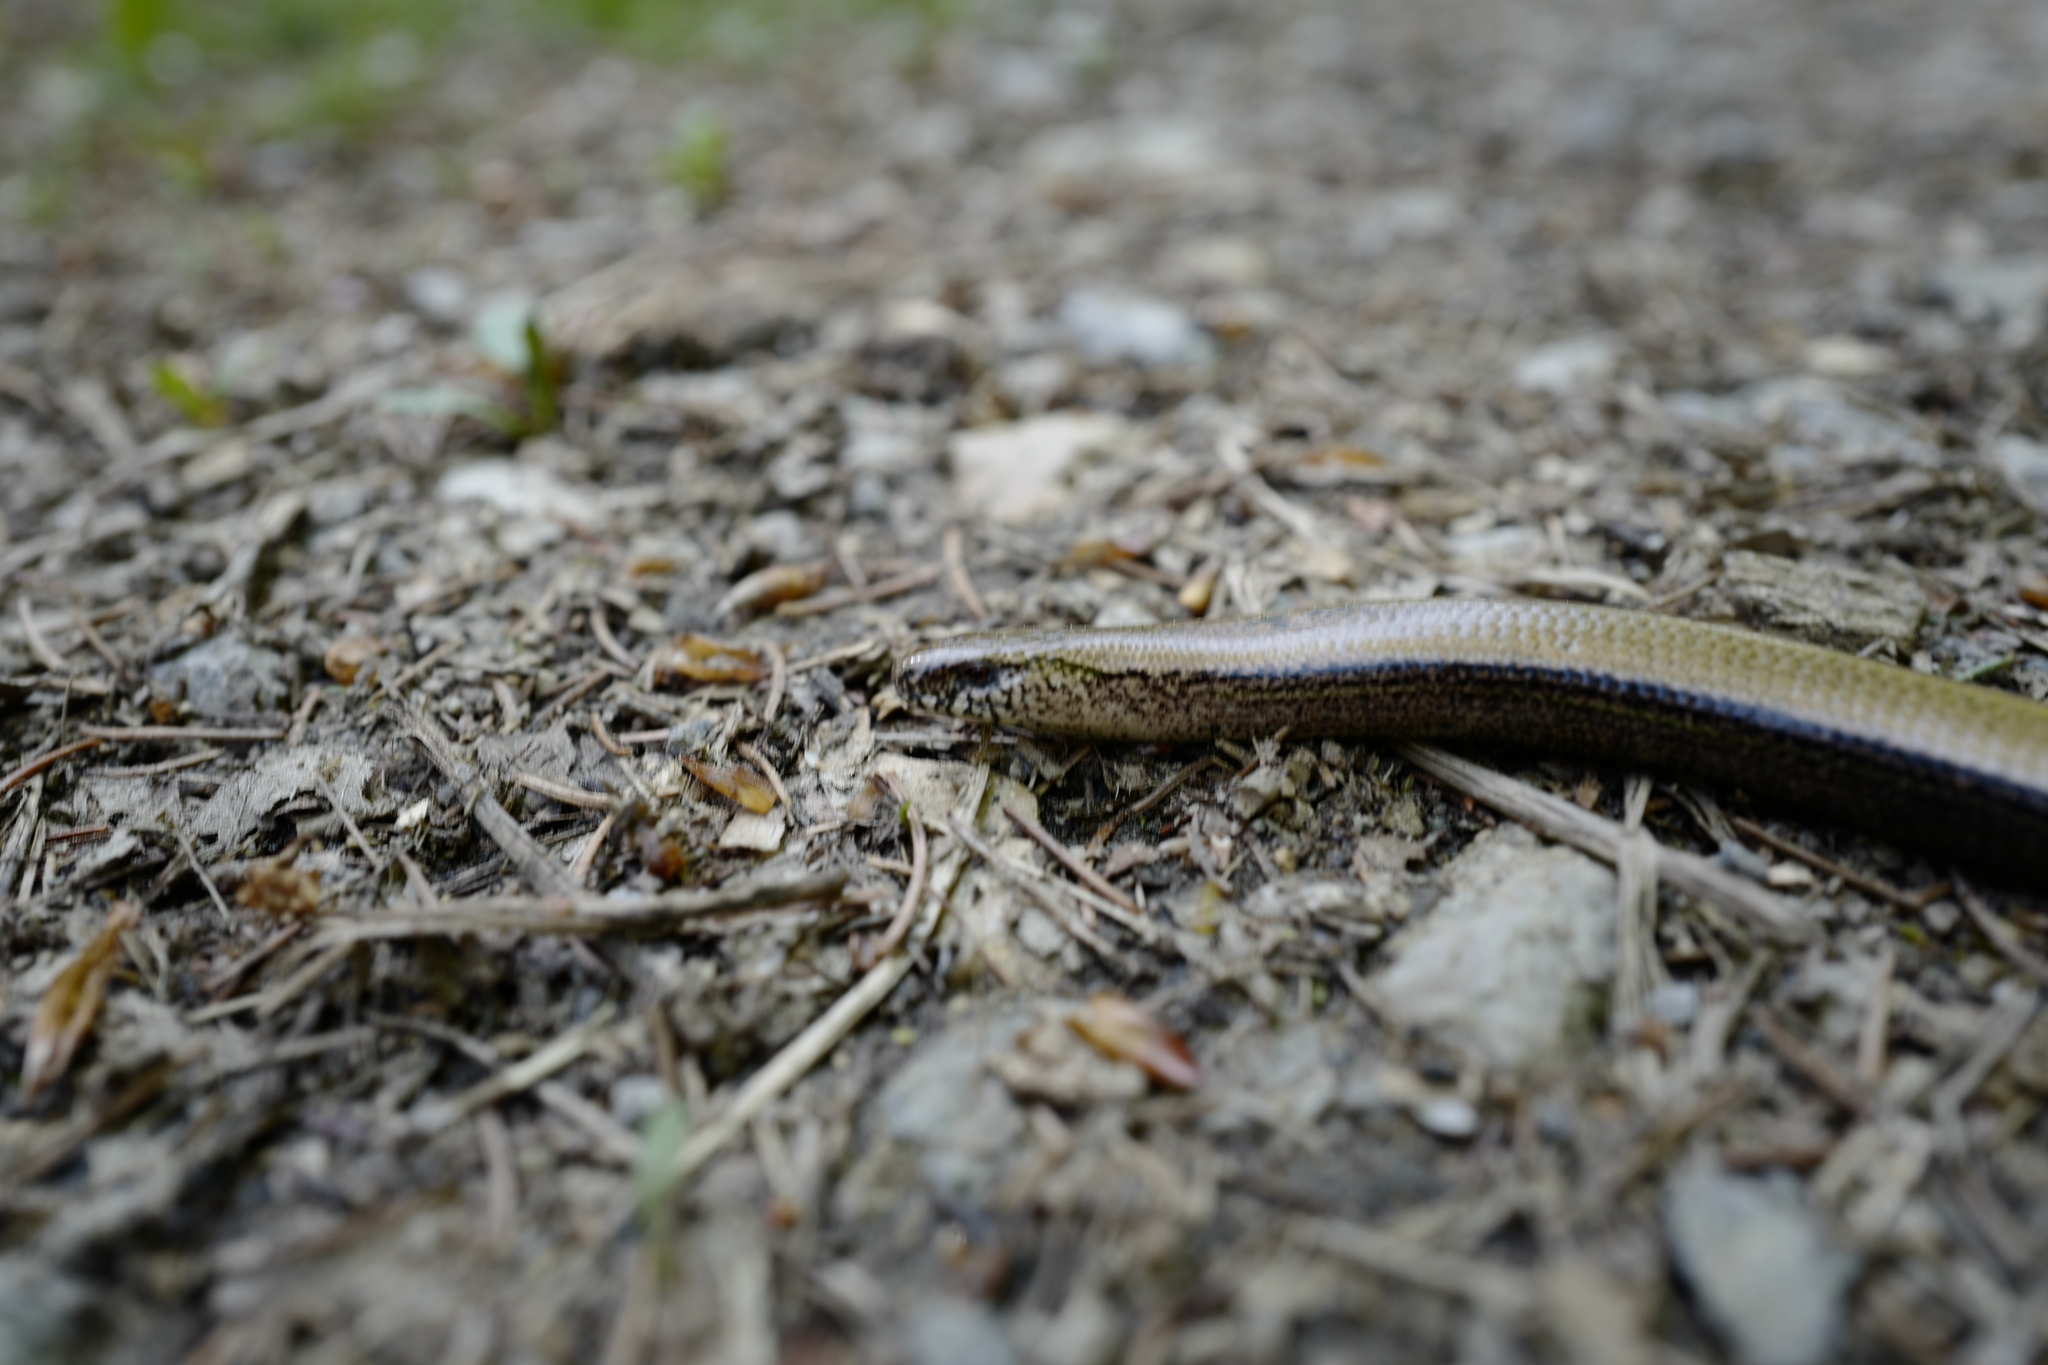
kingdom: Animalia
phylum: Chordata
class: Squamata
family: Anguidae
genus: Anguis
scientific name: Anguis fragilis
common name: Slow worm
